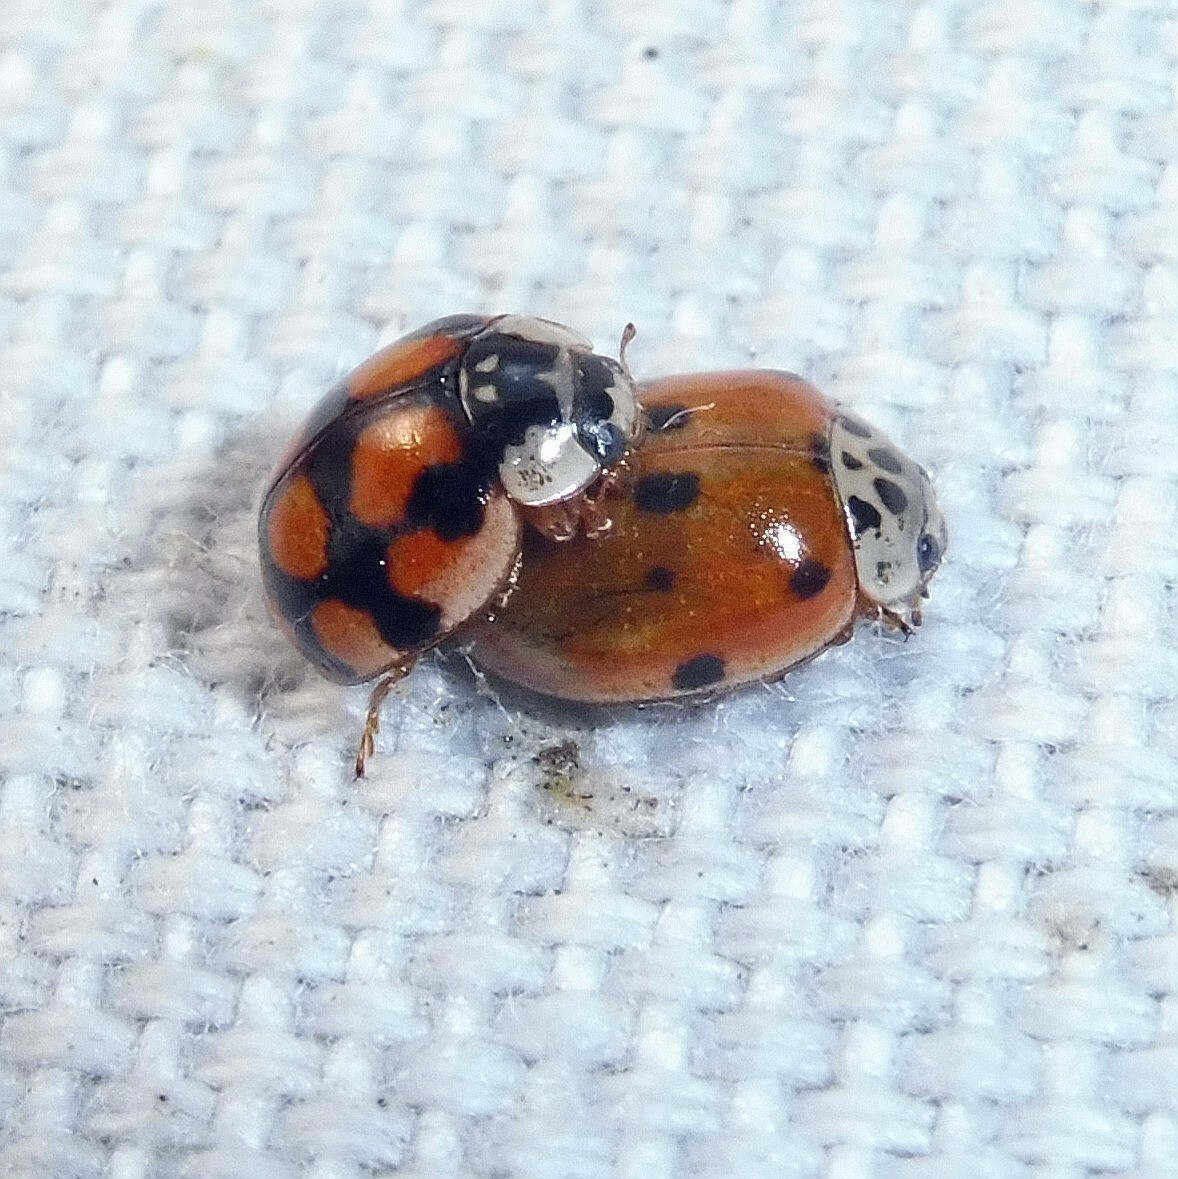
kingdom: Animalia
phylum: Arthropoda
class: Insecta
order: Coleoptera
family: Coccinellidae
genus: Adalia
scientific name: Adalia decempunctata
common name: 10-spot ladybird
